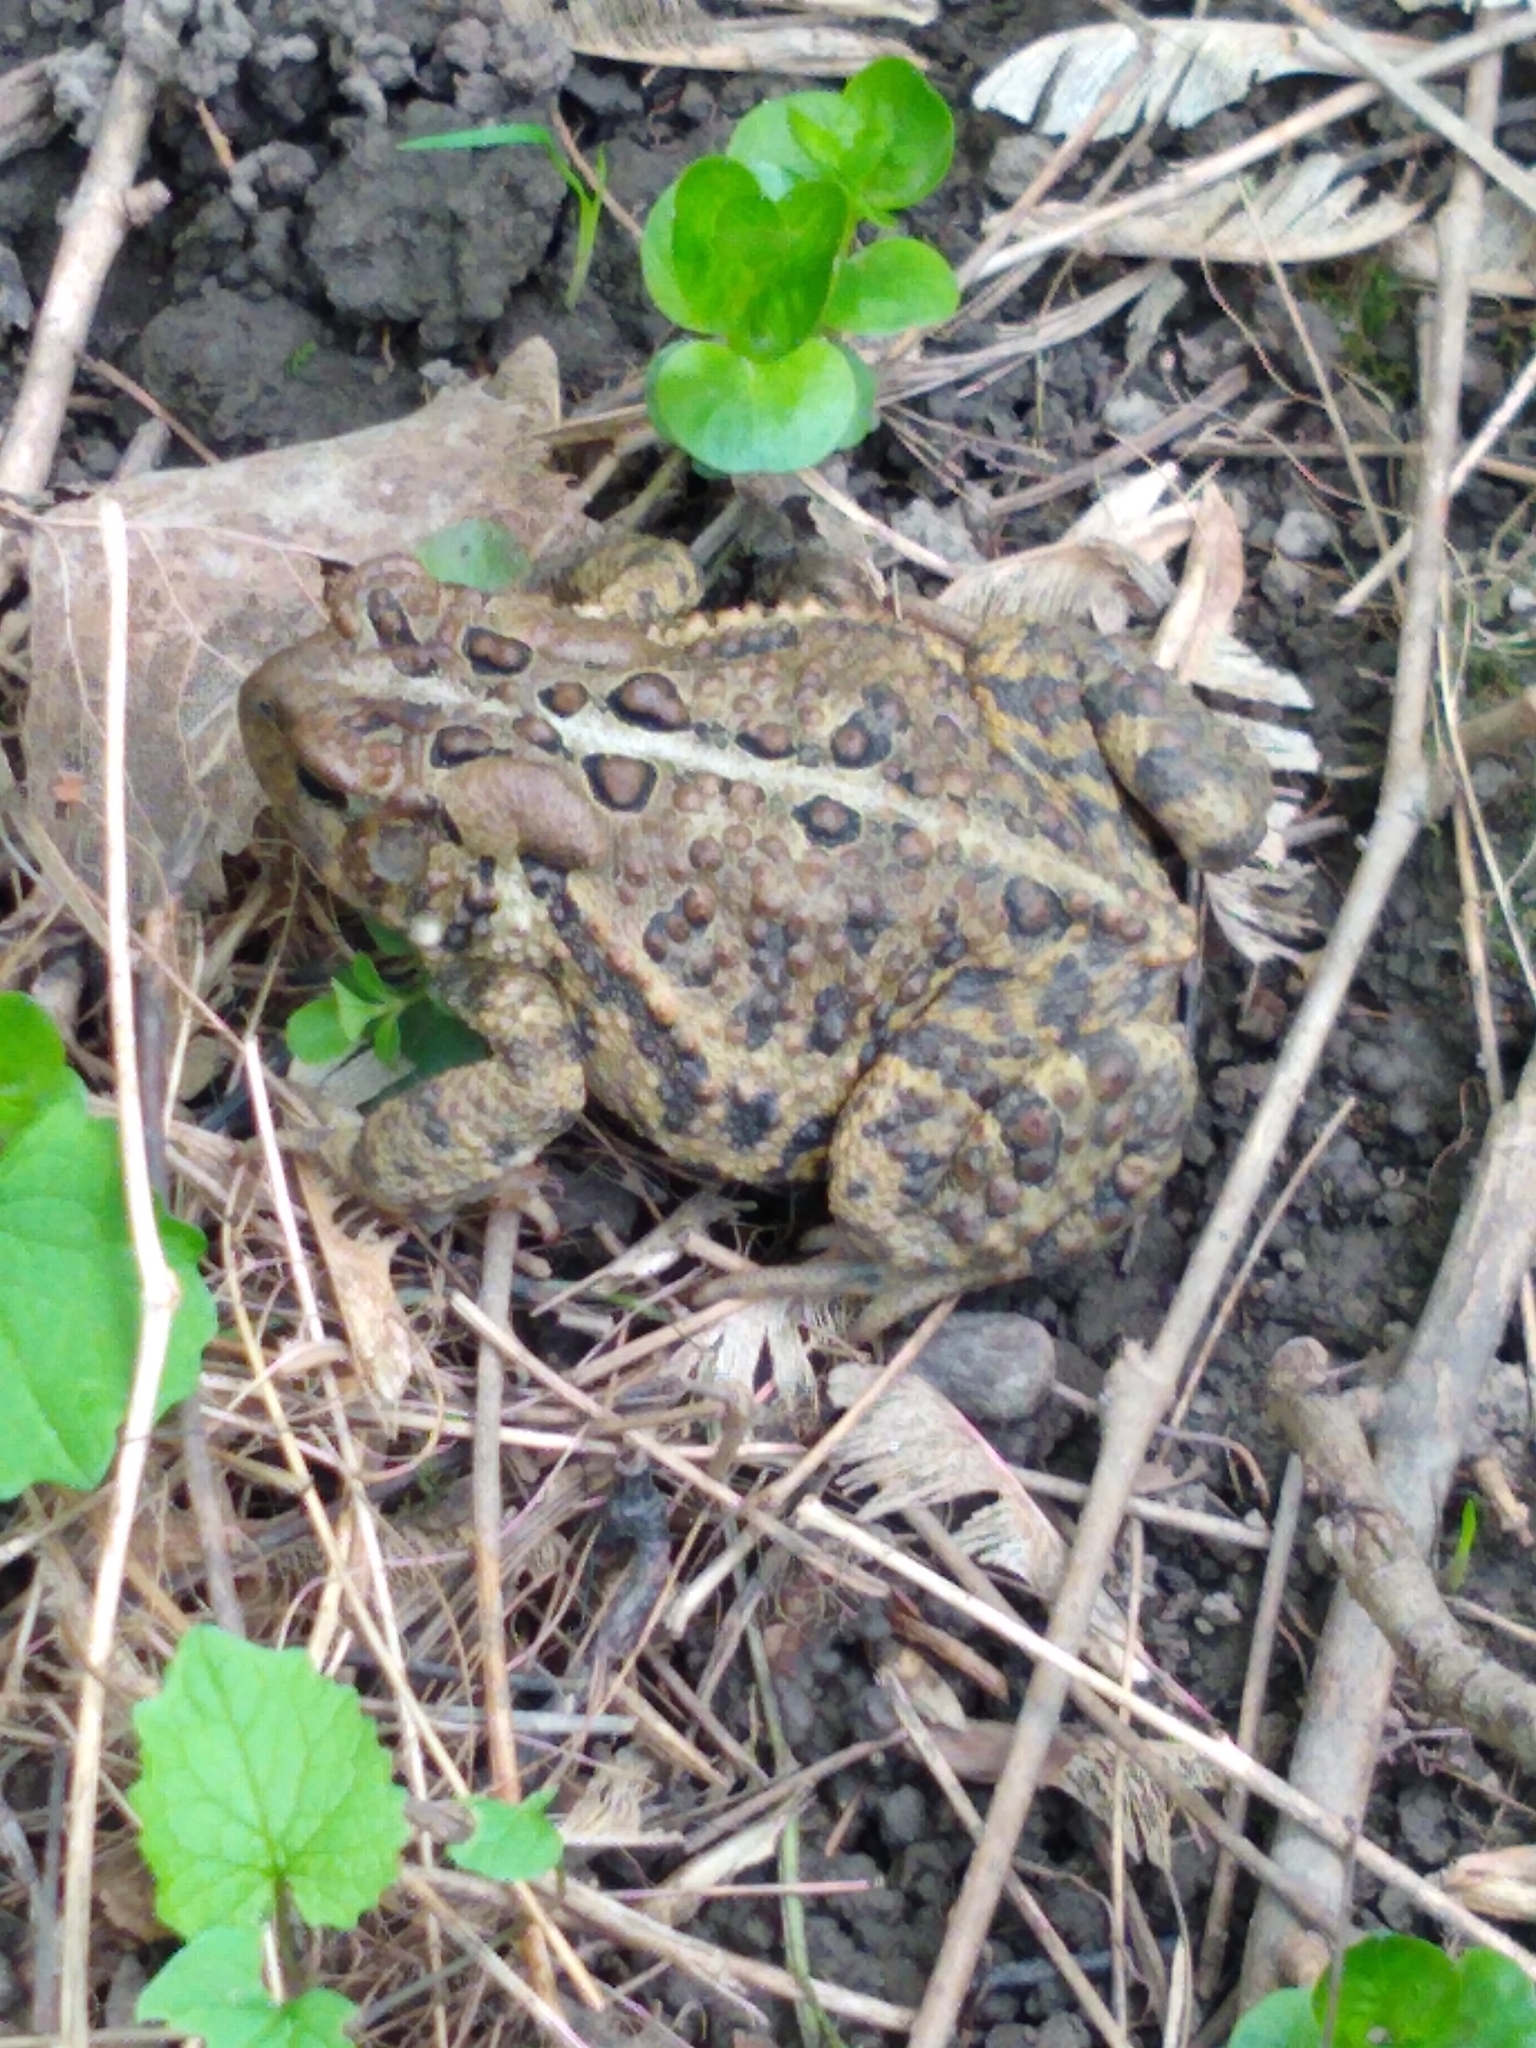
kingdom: Animalia
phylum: Chordata
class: Amphibia
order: Anura
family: Bufonidae
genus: Anaxyrus
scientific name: Anaxyrus americanus
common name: American toad
